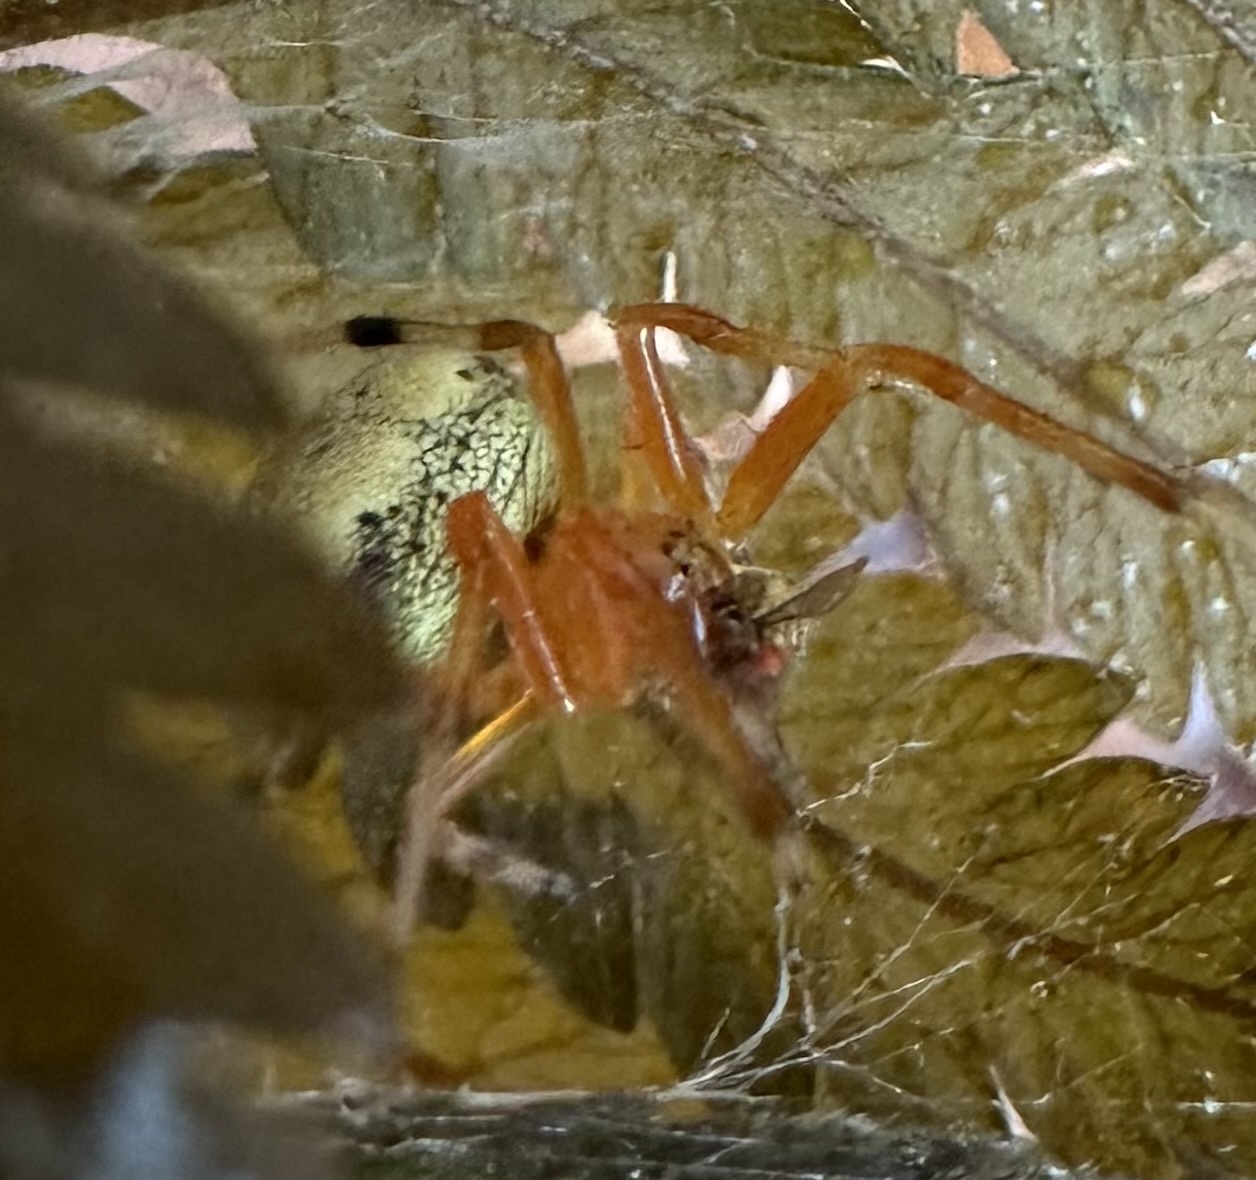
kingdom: Animalia
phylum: Arthropoda
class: Arachnida
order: Araneae
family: Araneidae
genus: Araneus
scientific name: Araneus thaddeus
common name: Lattice orbweaver
